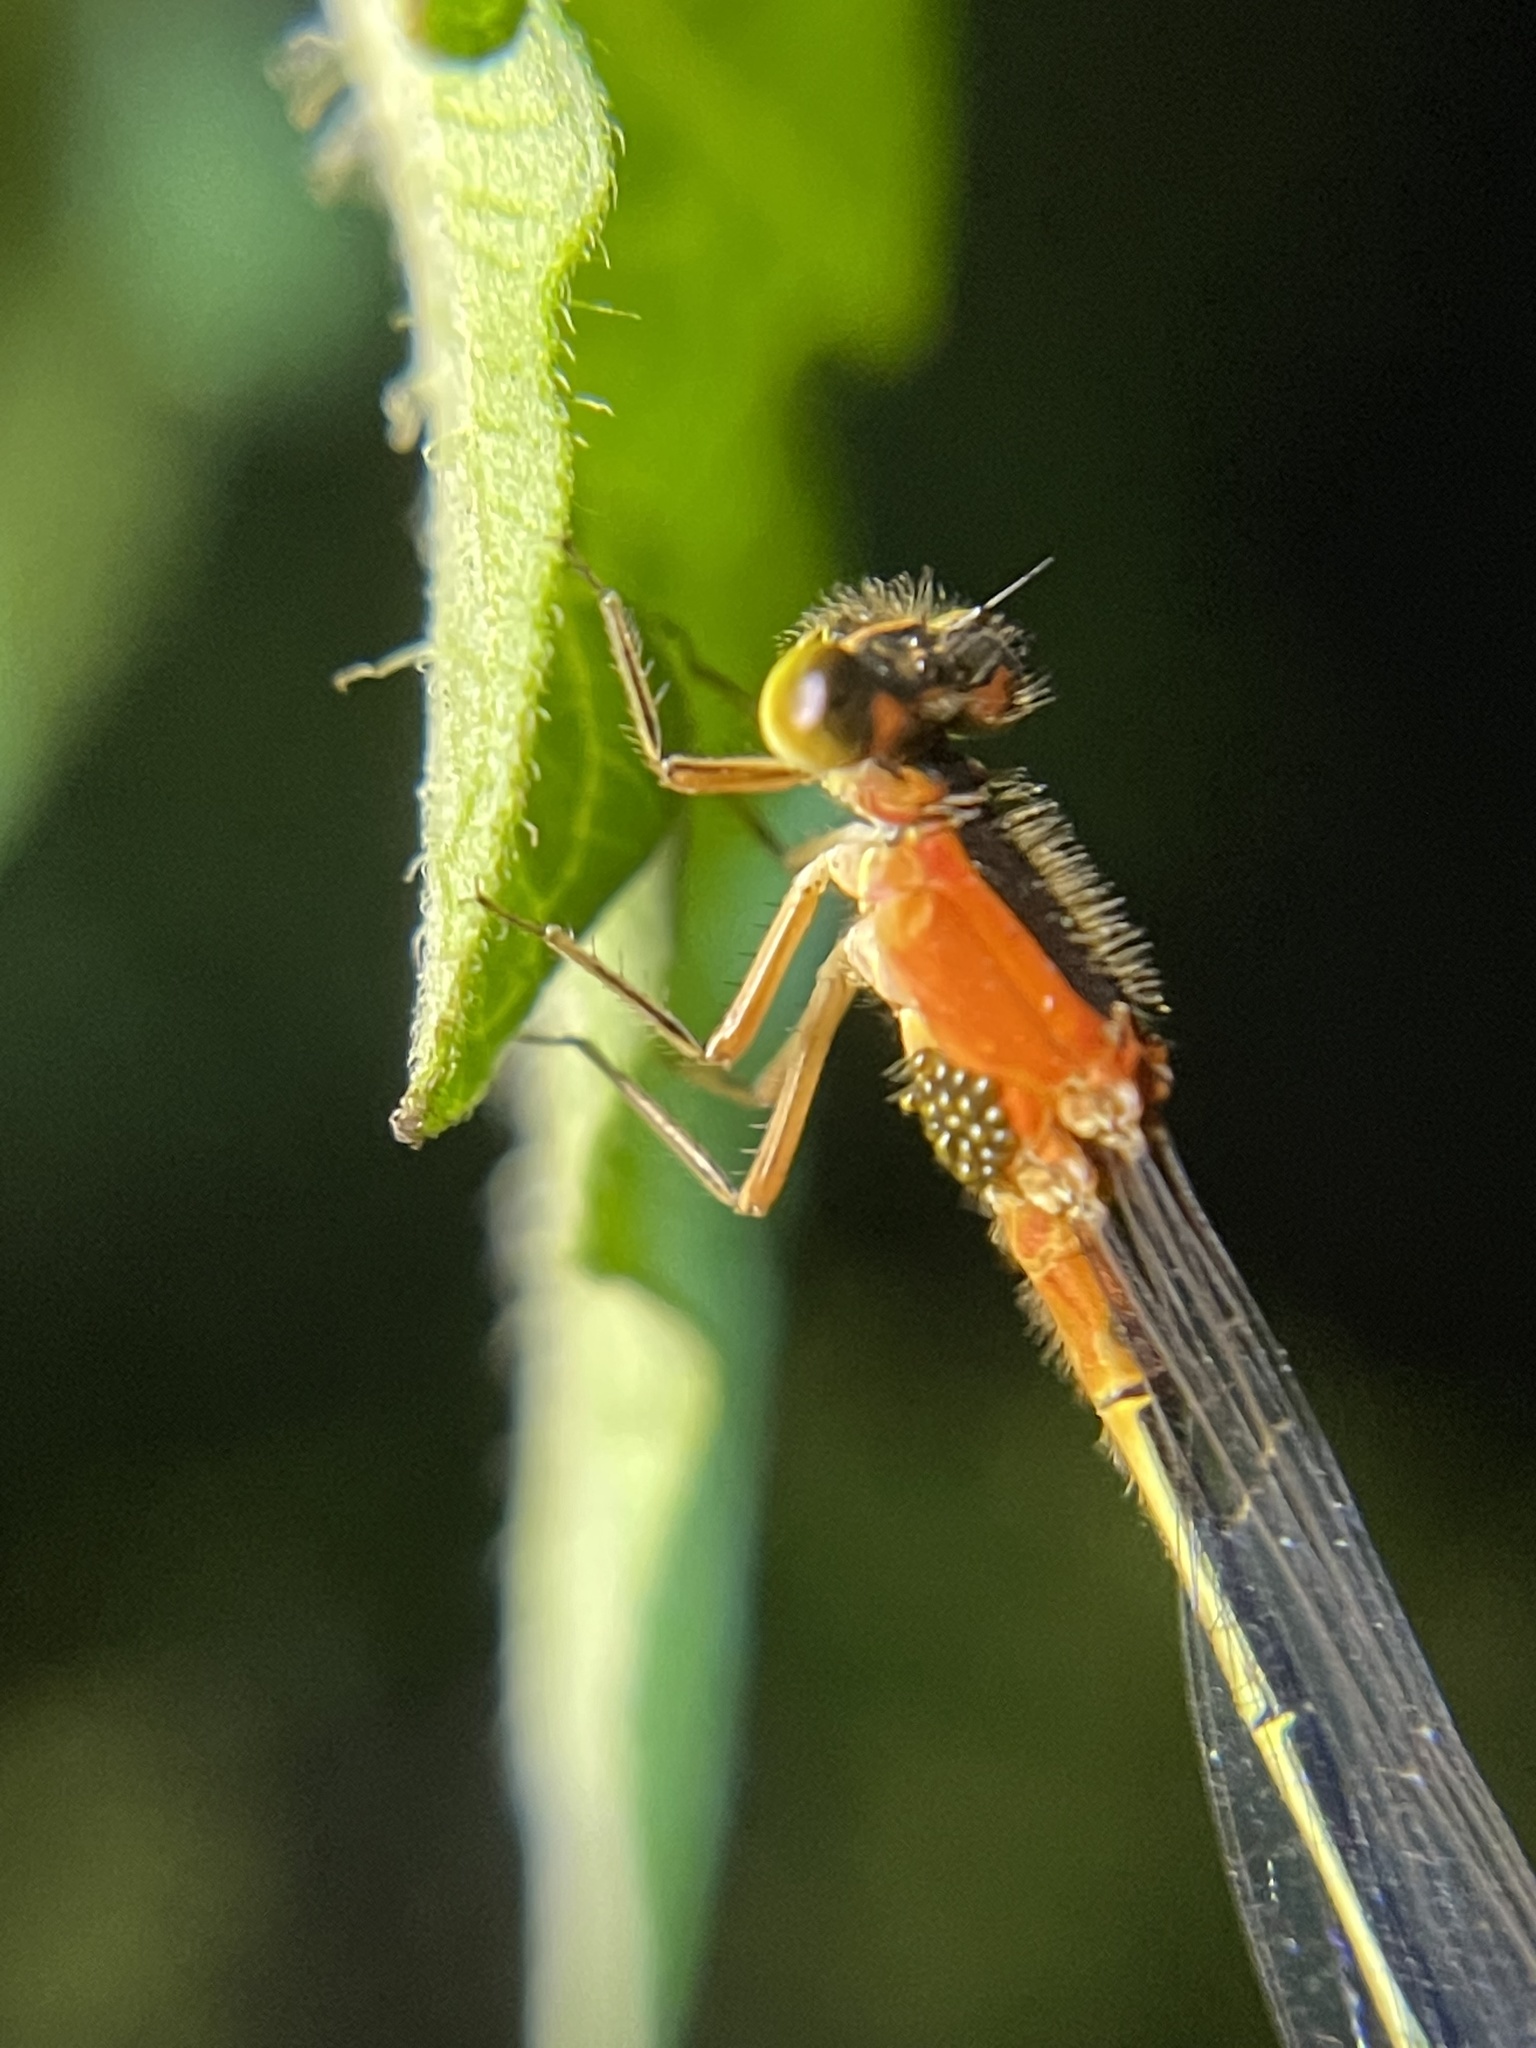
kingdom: Animalia
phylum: Arthropoda
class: Insecta
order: Odonata
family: Coenagrionidae
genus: Ischnura
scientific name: Ischnura ramburii
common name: Rambur's forktail
